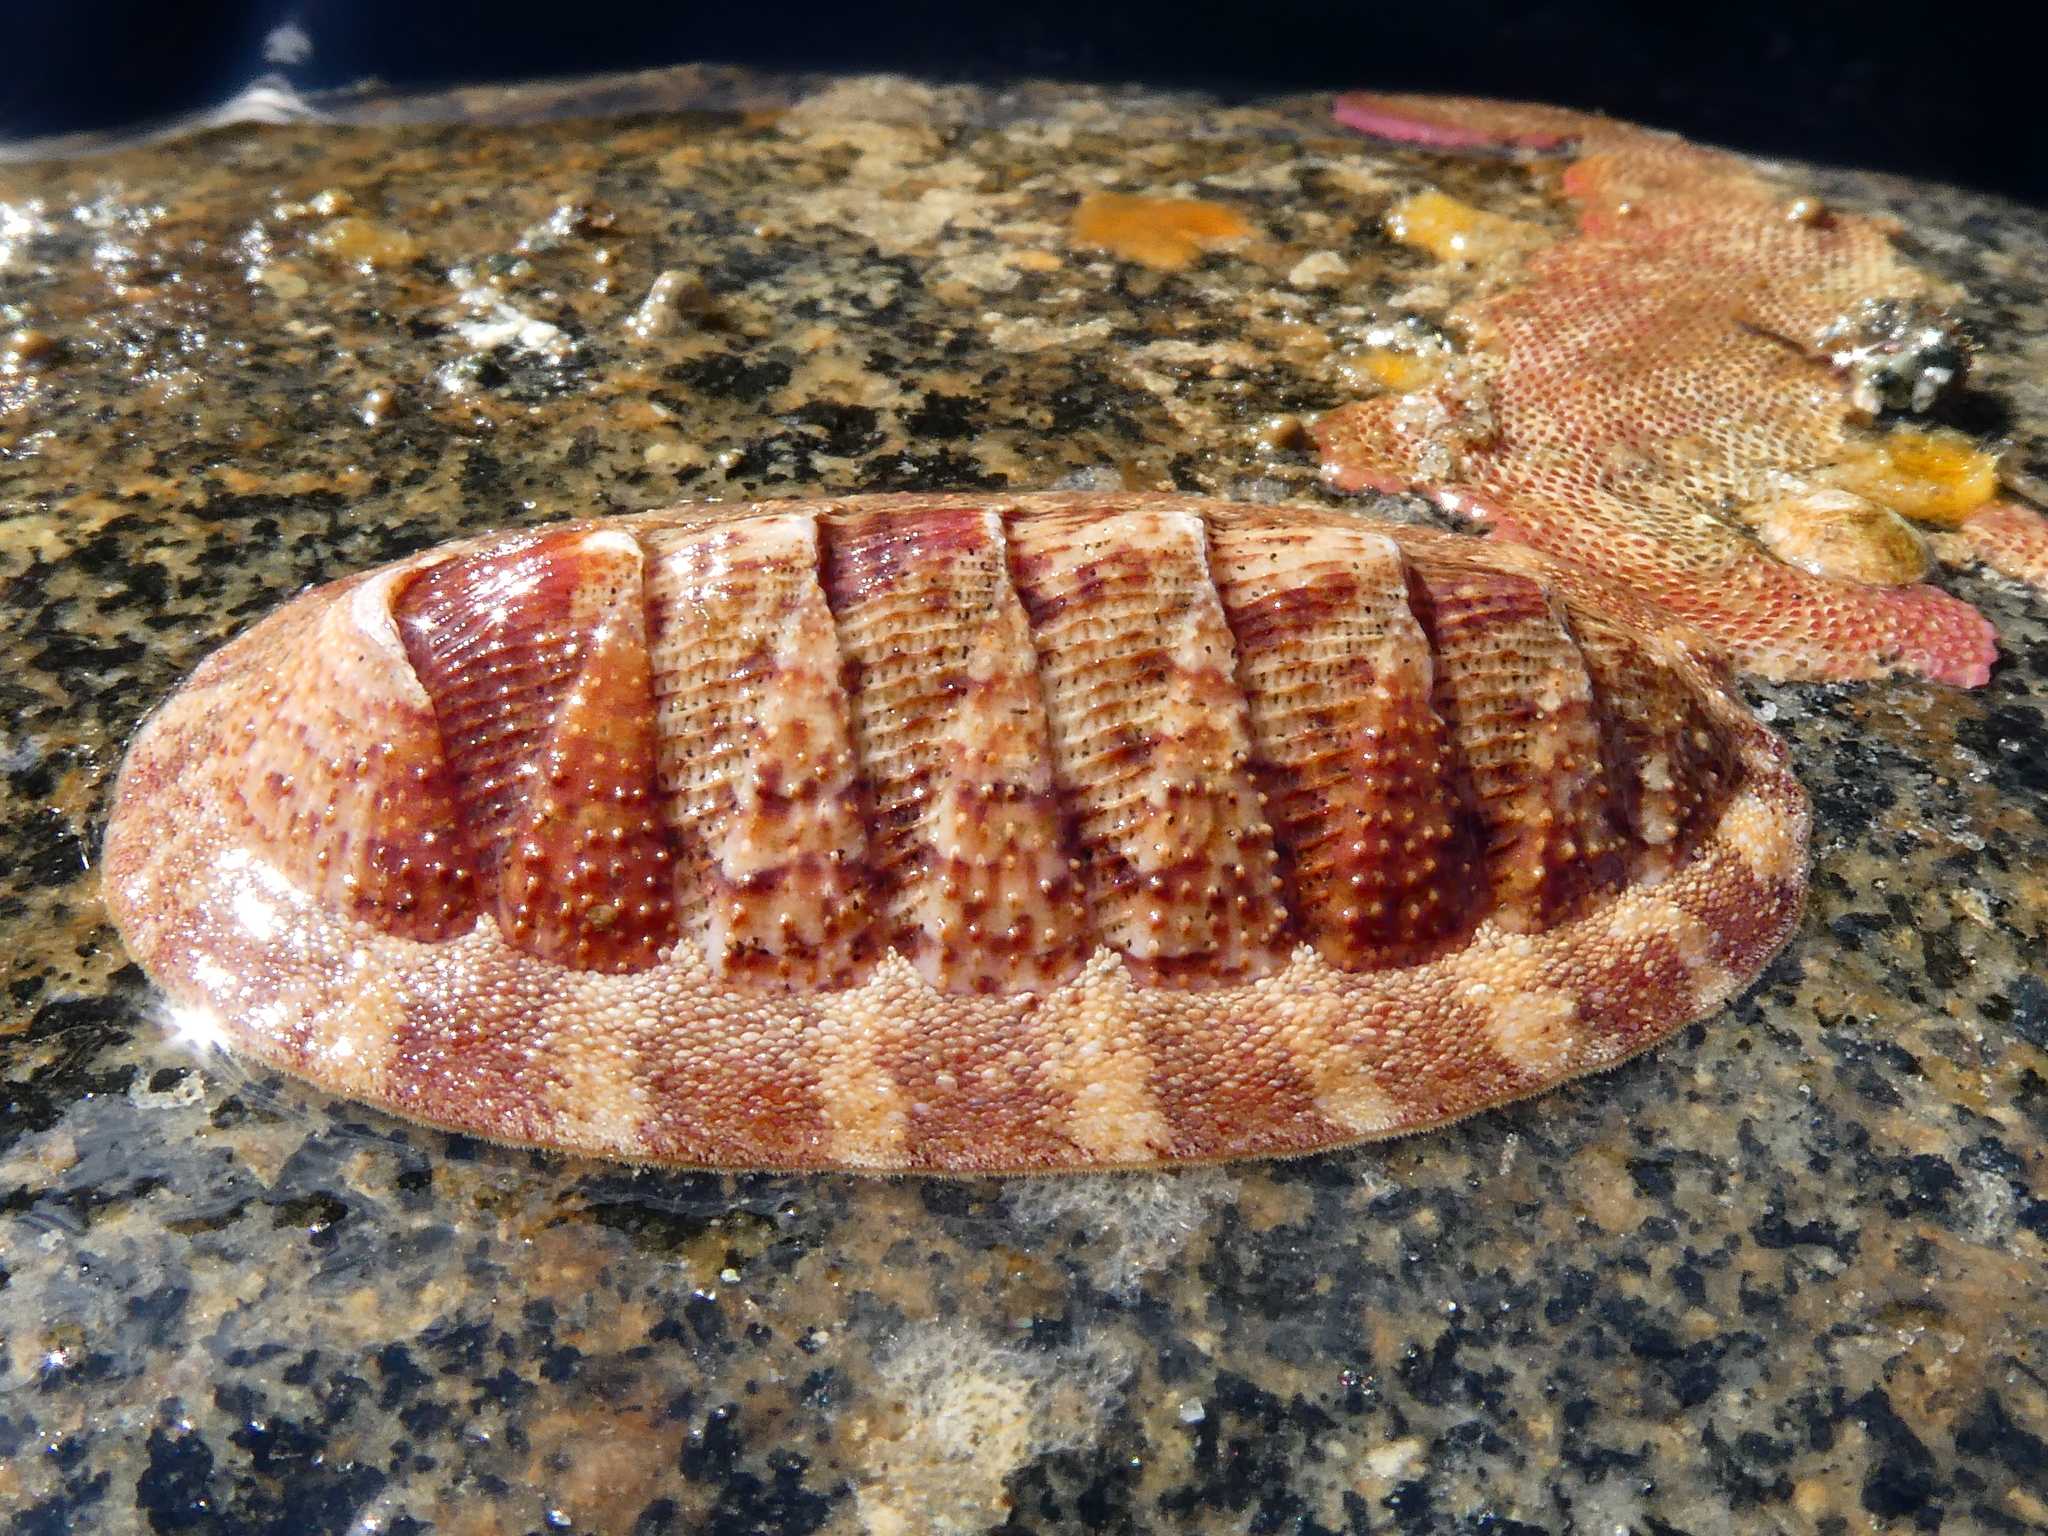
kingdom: Animalia
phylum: Mollusca
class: Polyplacophora
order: Chitonida
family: Ischnochitonidae
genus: Lepidozona
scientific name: Lepidozona mertensii
